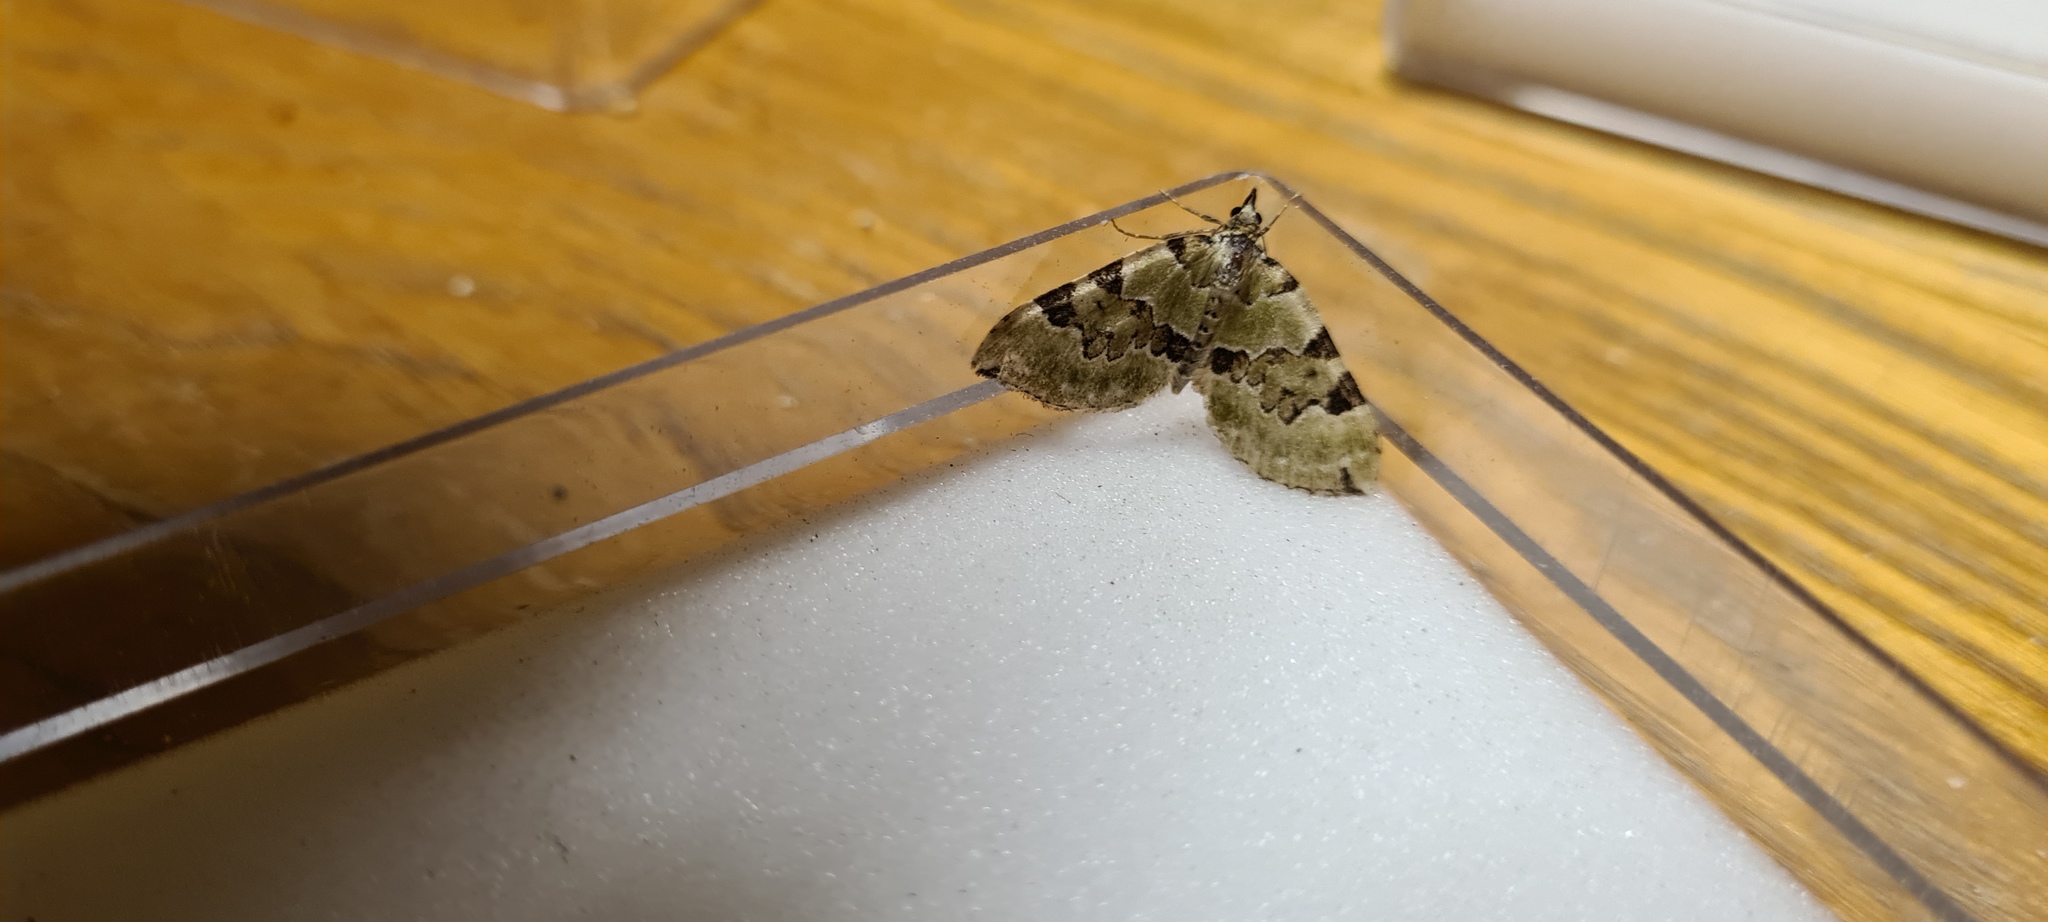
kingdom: Animalia
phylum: Arthropoda
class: Insecta
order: Lepidoptera
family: Geometridae
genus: Colostygia
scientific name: Colostygia pectinataria
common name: Green carpet
